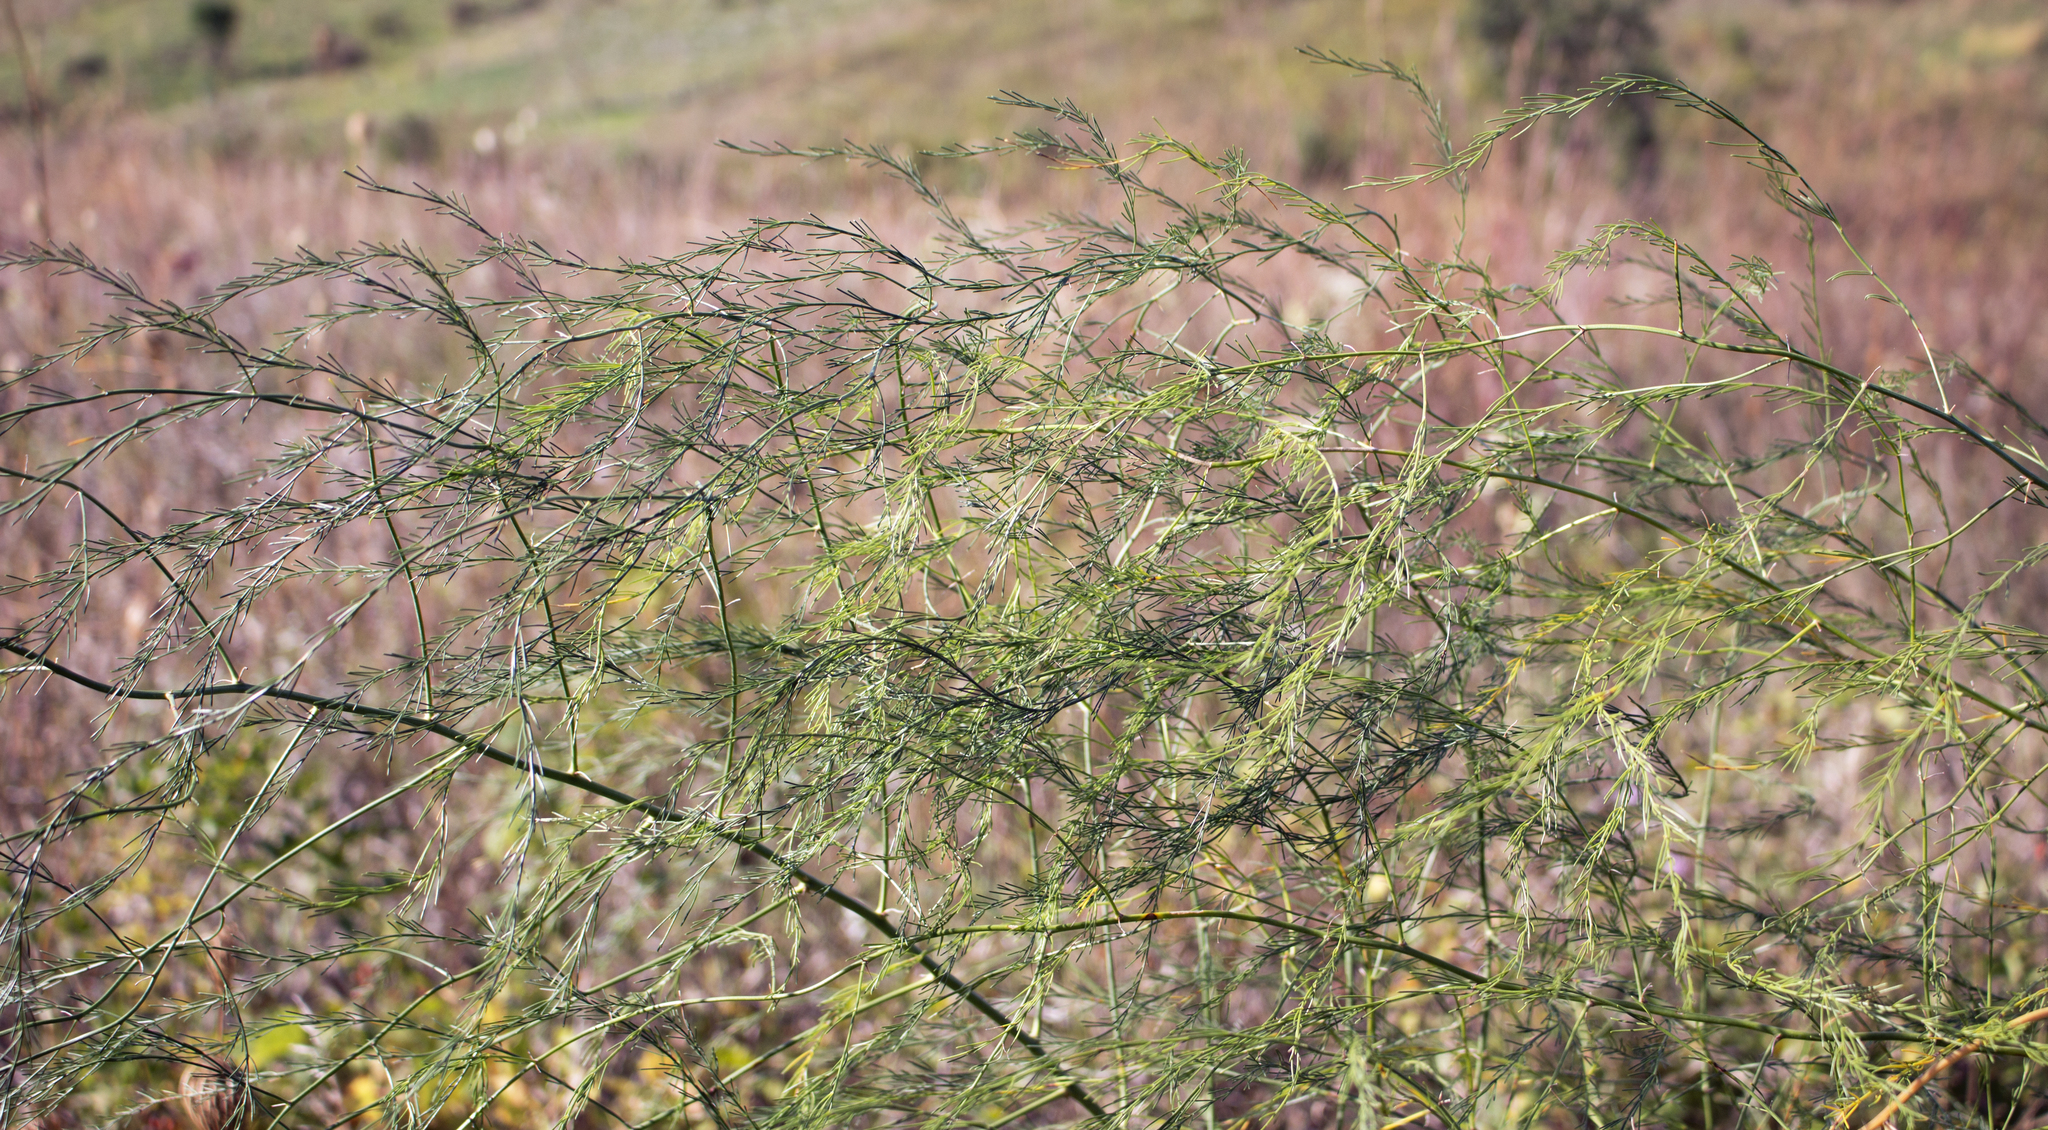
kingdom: Plantae
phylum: Tracheophyta
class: Liliopsida
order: Asparagales
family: Asparagaceae
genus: Asparagus
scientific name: Asparagus officinalis
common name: Garden asparagus
